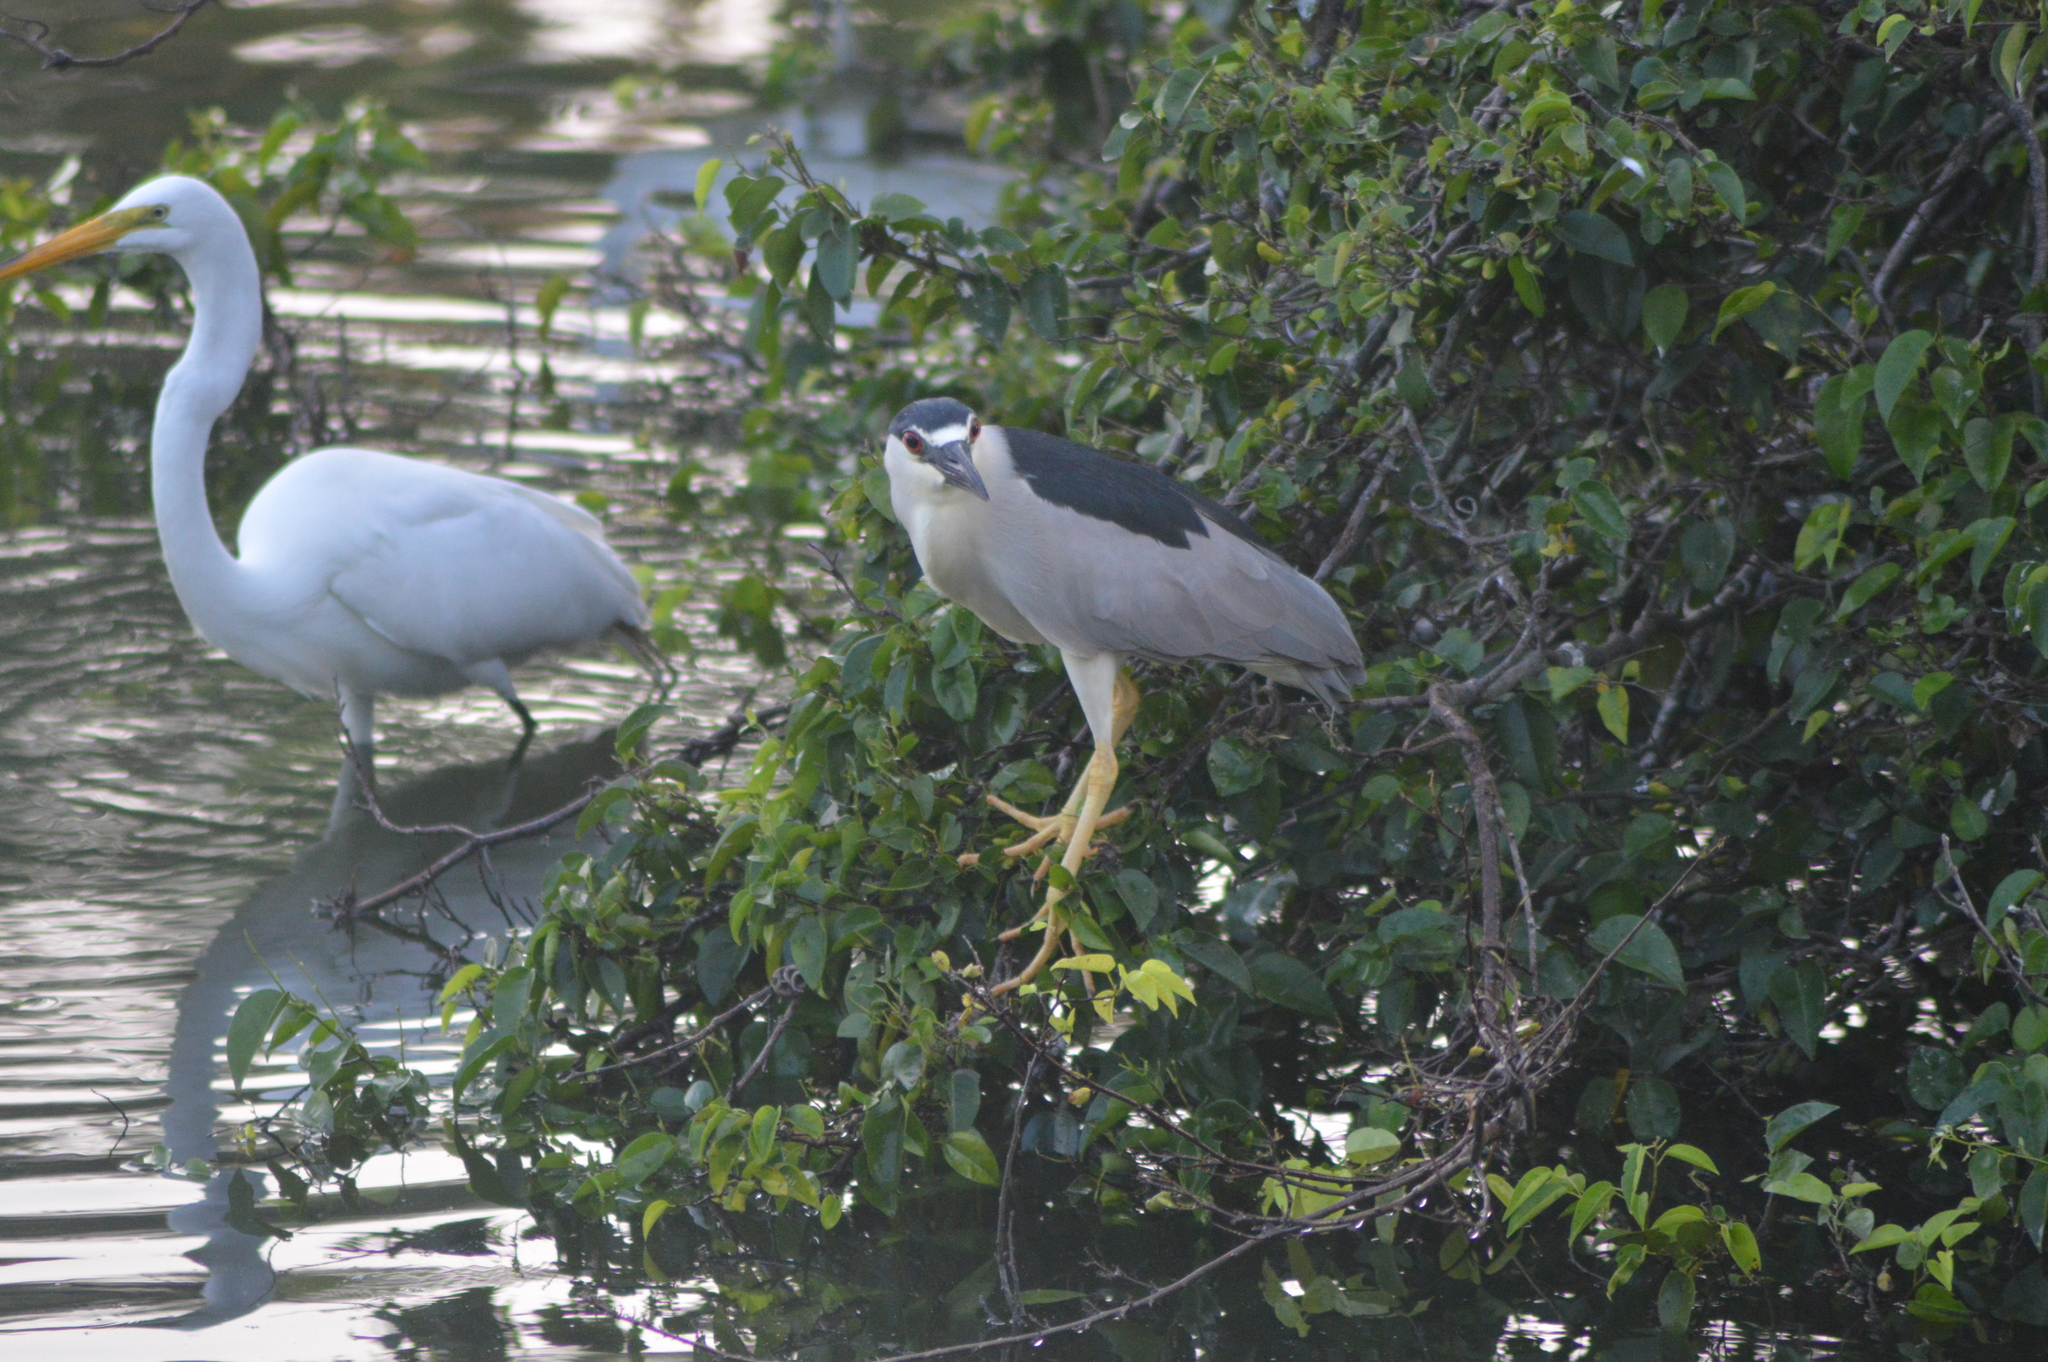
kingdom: Animalia
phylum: Chordata
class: Aves
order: Pelecaniformes
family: Ardeidae
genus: Nycticorax
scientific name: Nycticorax nycticorax
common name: Black-crowned night heron
